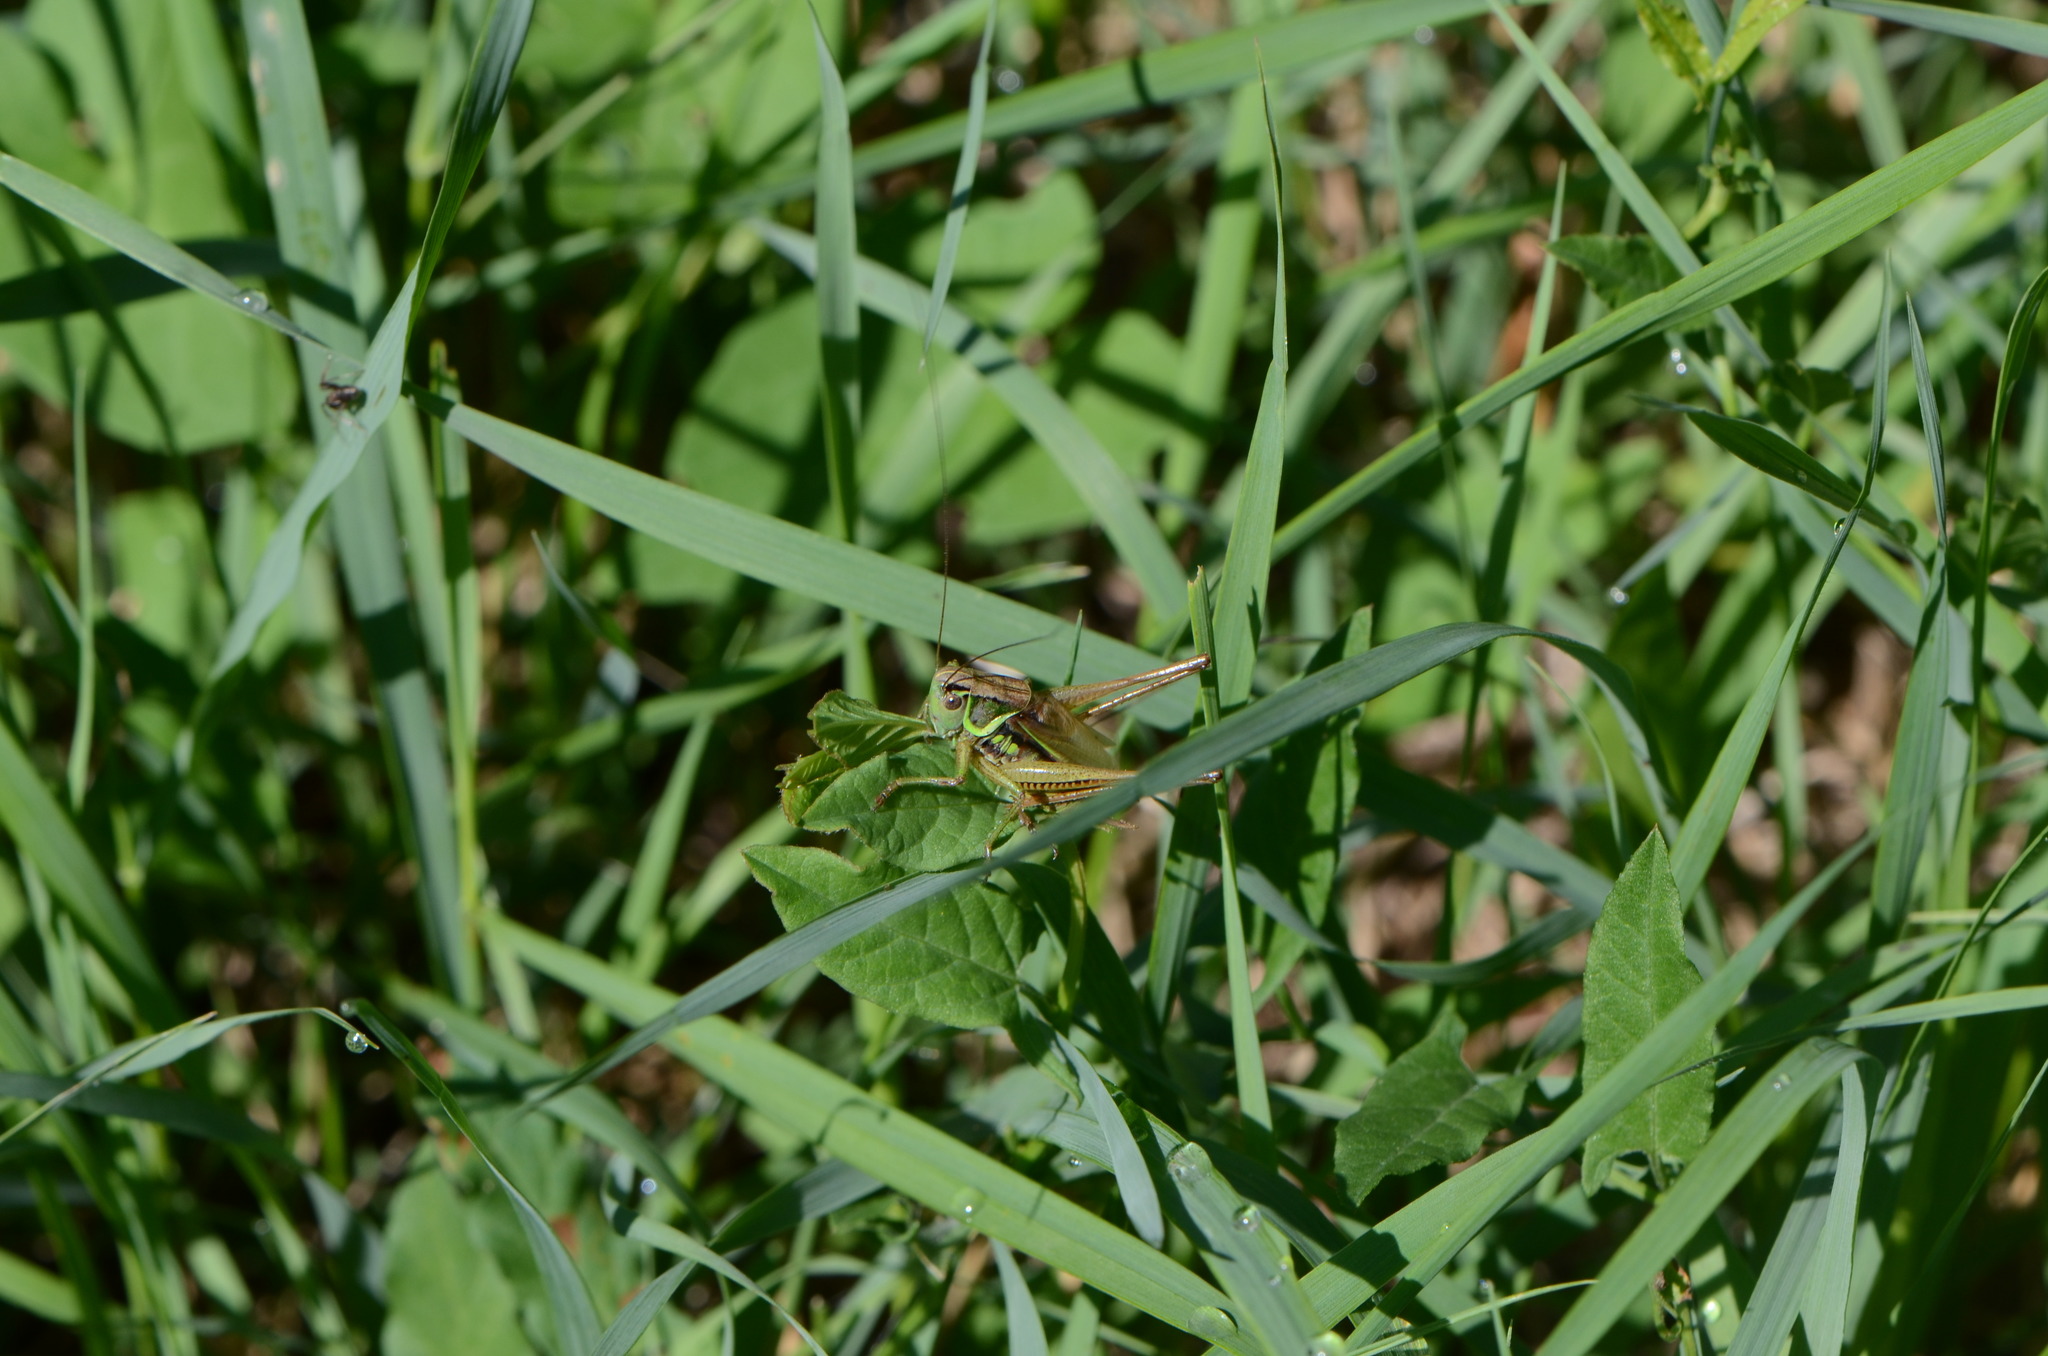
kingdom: Animalia
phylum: Arthropoda
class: Insecta
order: Orthoptera
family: Tettigoniidae
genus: Roeseliana
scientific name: Roeseliana roeselii
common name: Roesel's bush cricket
